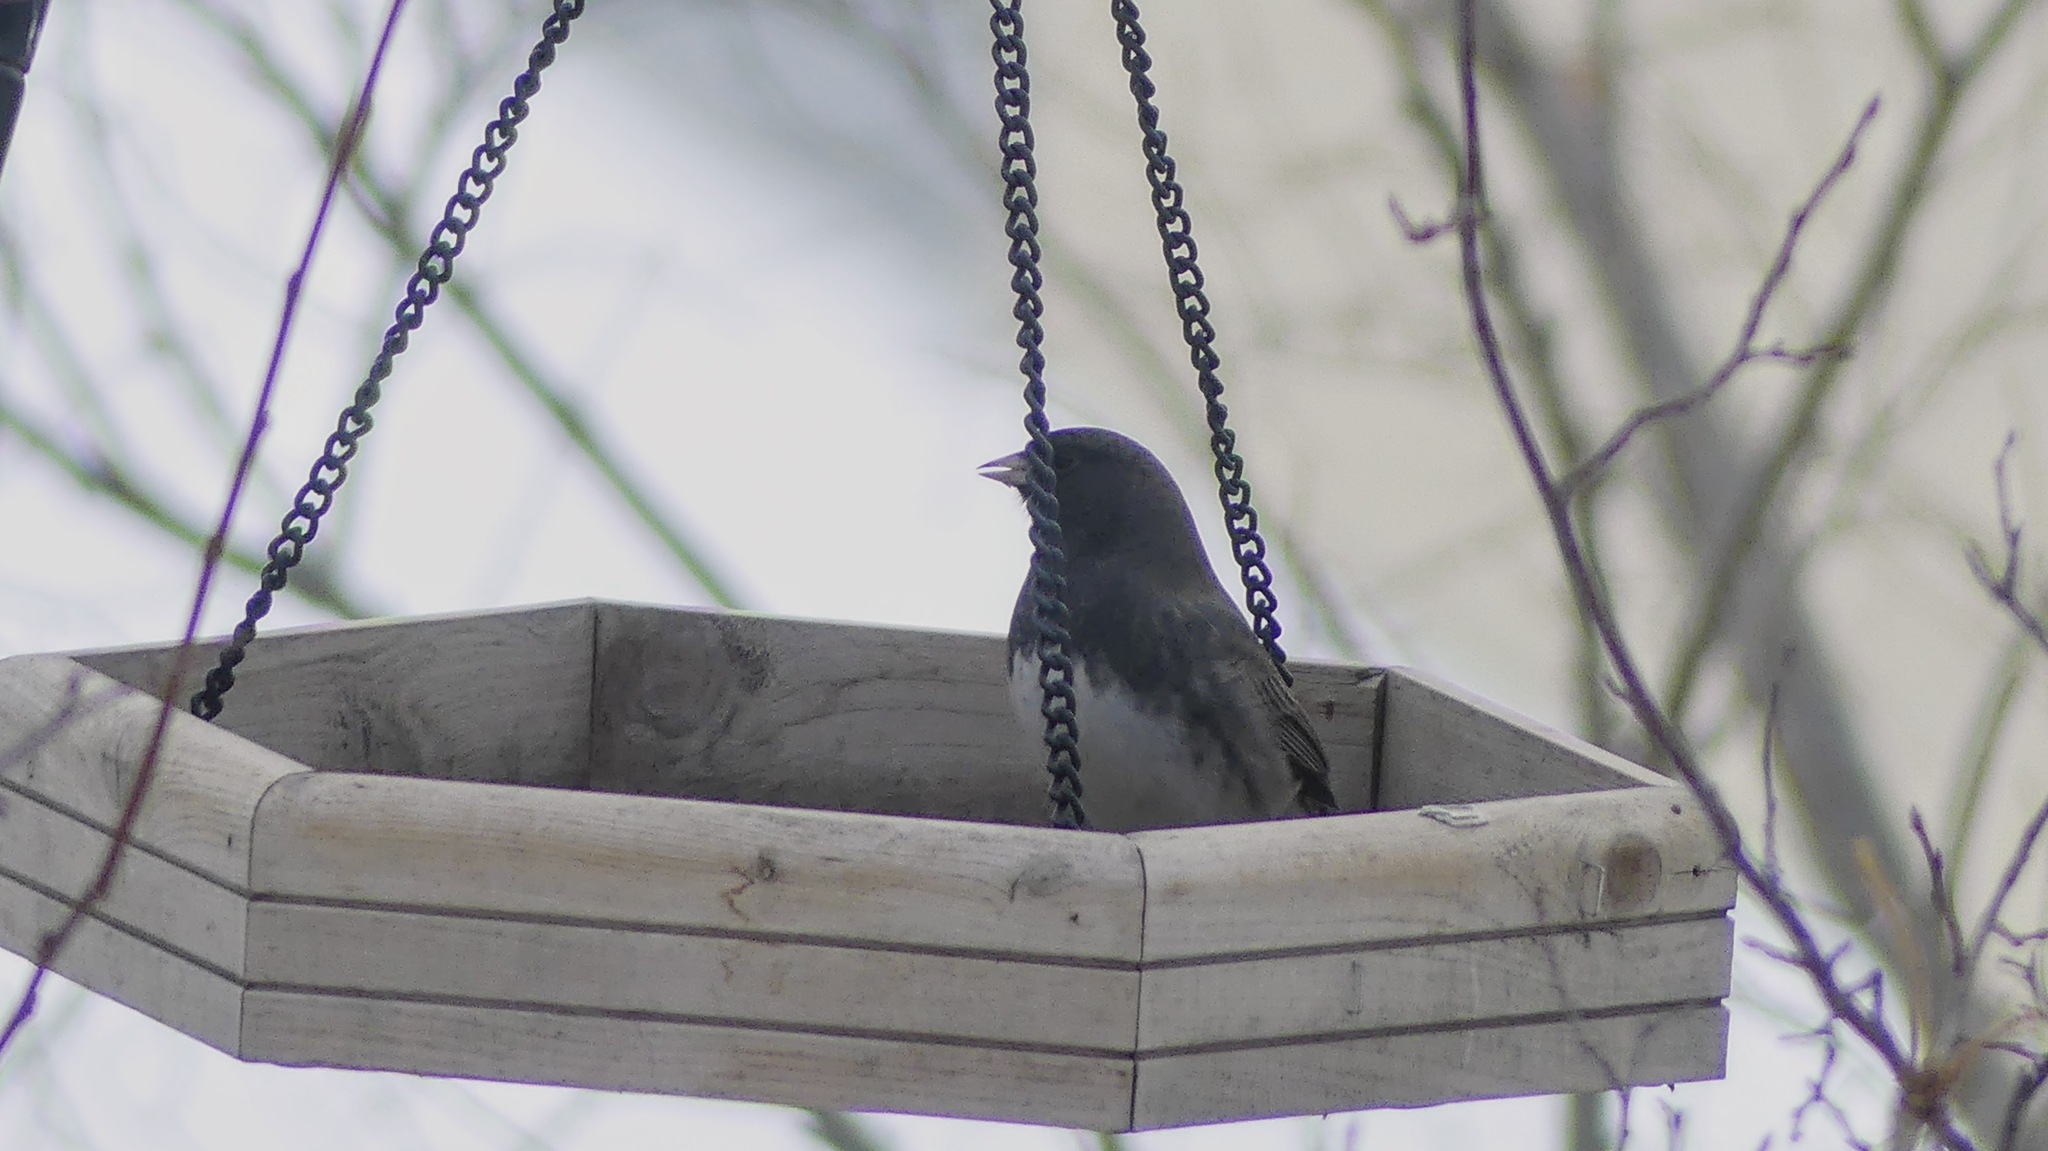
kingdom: Animalia
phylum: Chordata
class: Aves
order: Passeriformes
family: Passerellidae
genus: Junco
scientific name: Junco hyemalis
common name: Dark-eyed junco
